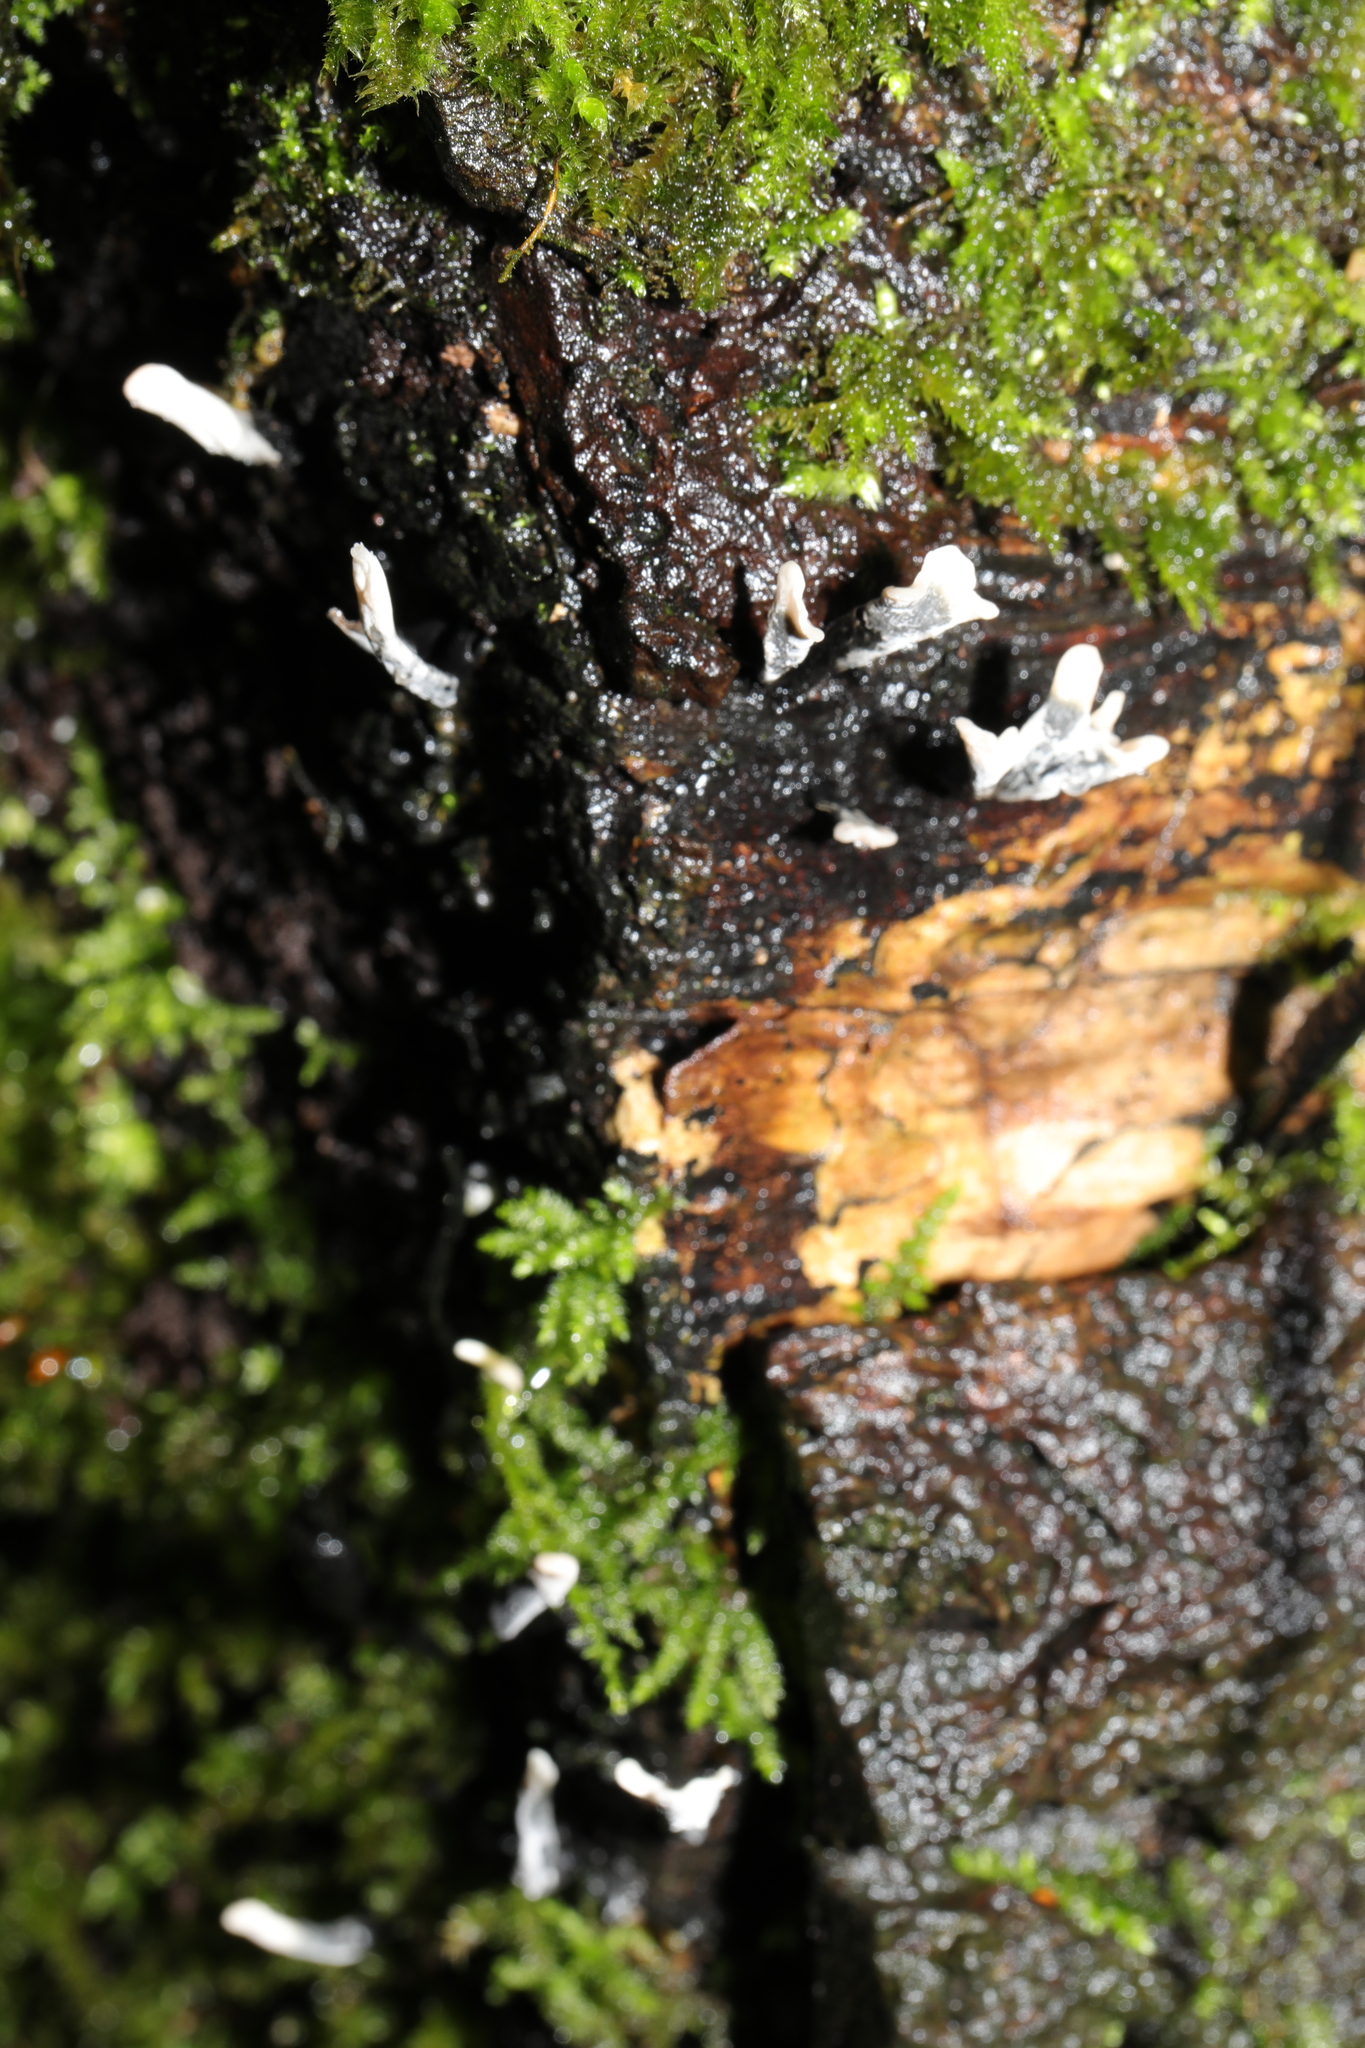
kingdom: Fungi
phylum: Ascomycota
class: Sordariomycetes
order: Xylariales
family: Xylariaceae
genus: Xylaria
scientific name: Xylaria hypoxylon
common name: Candle-snuff fungus
